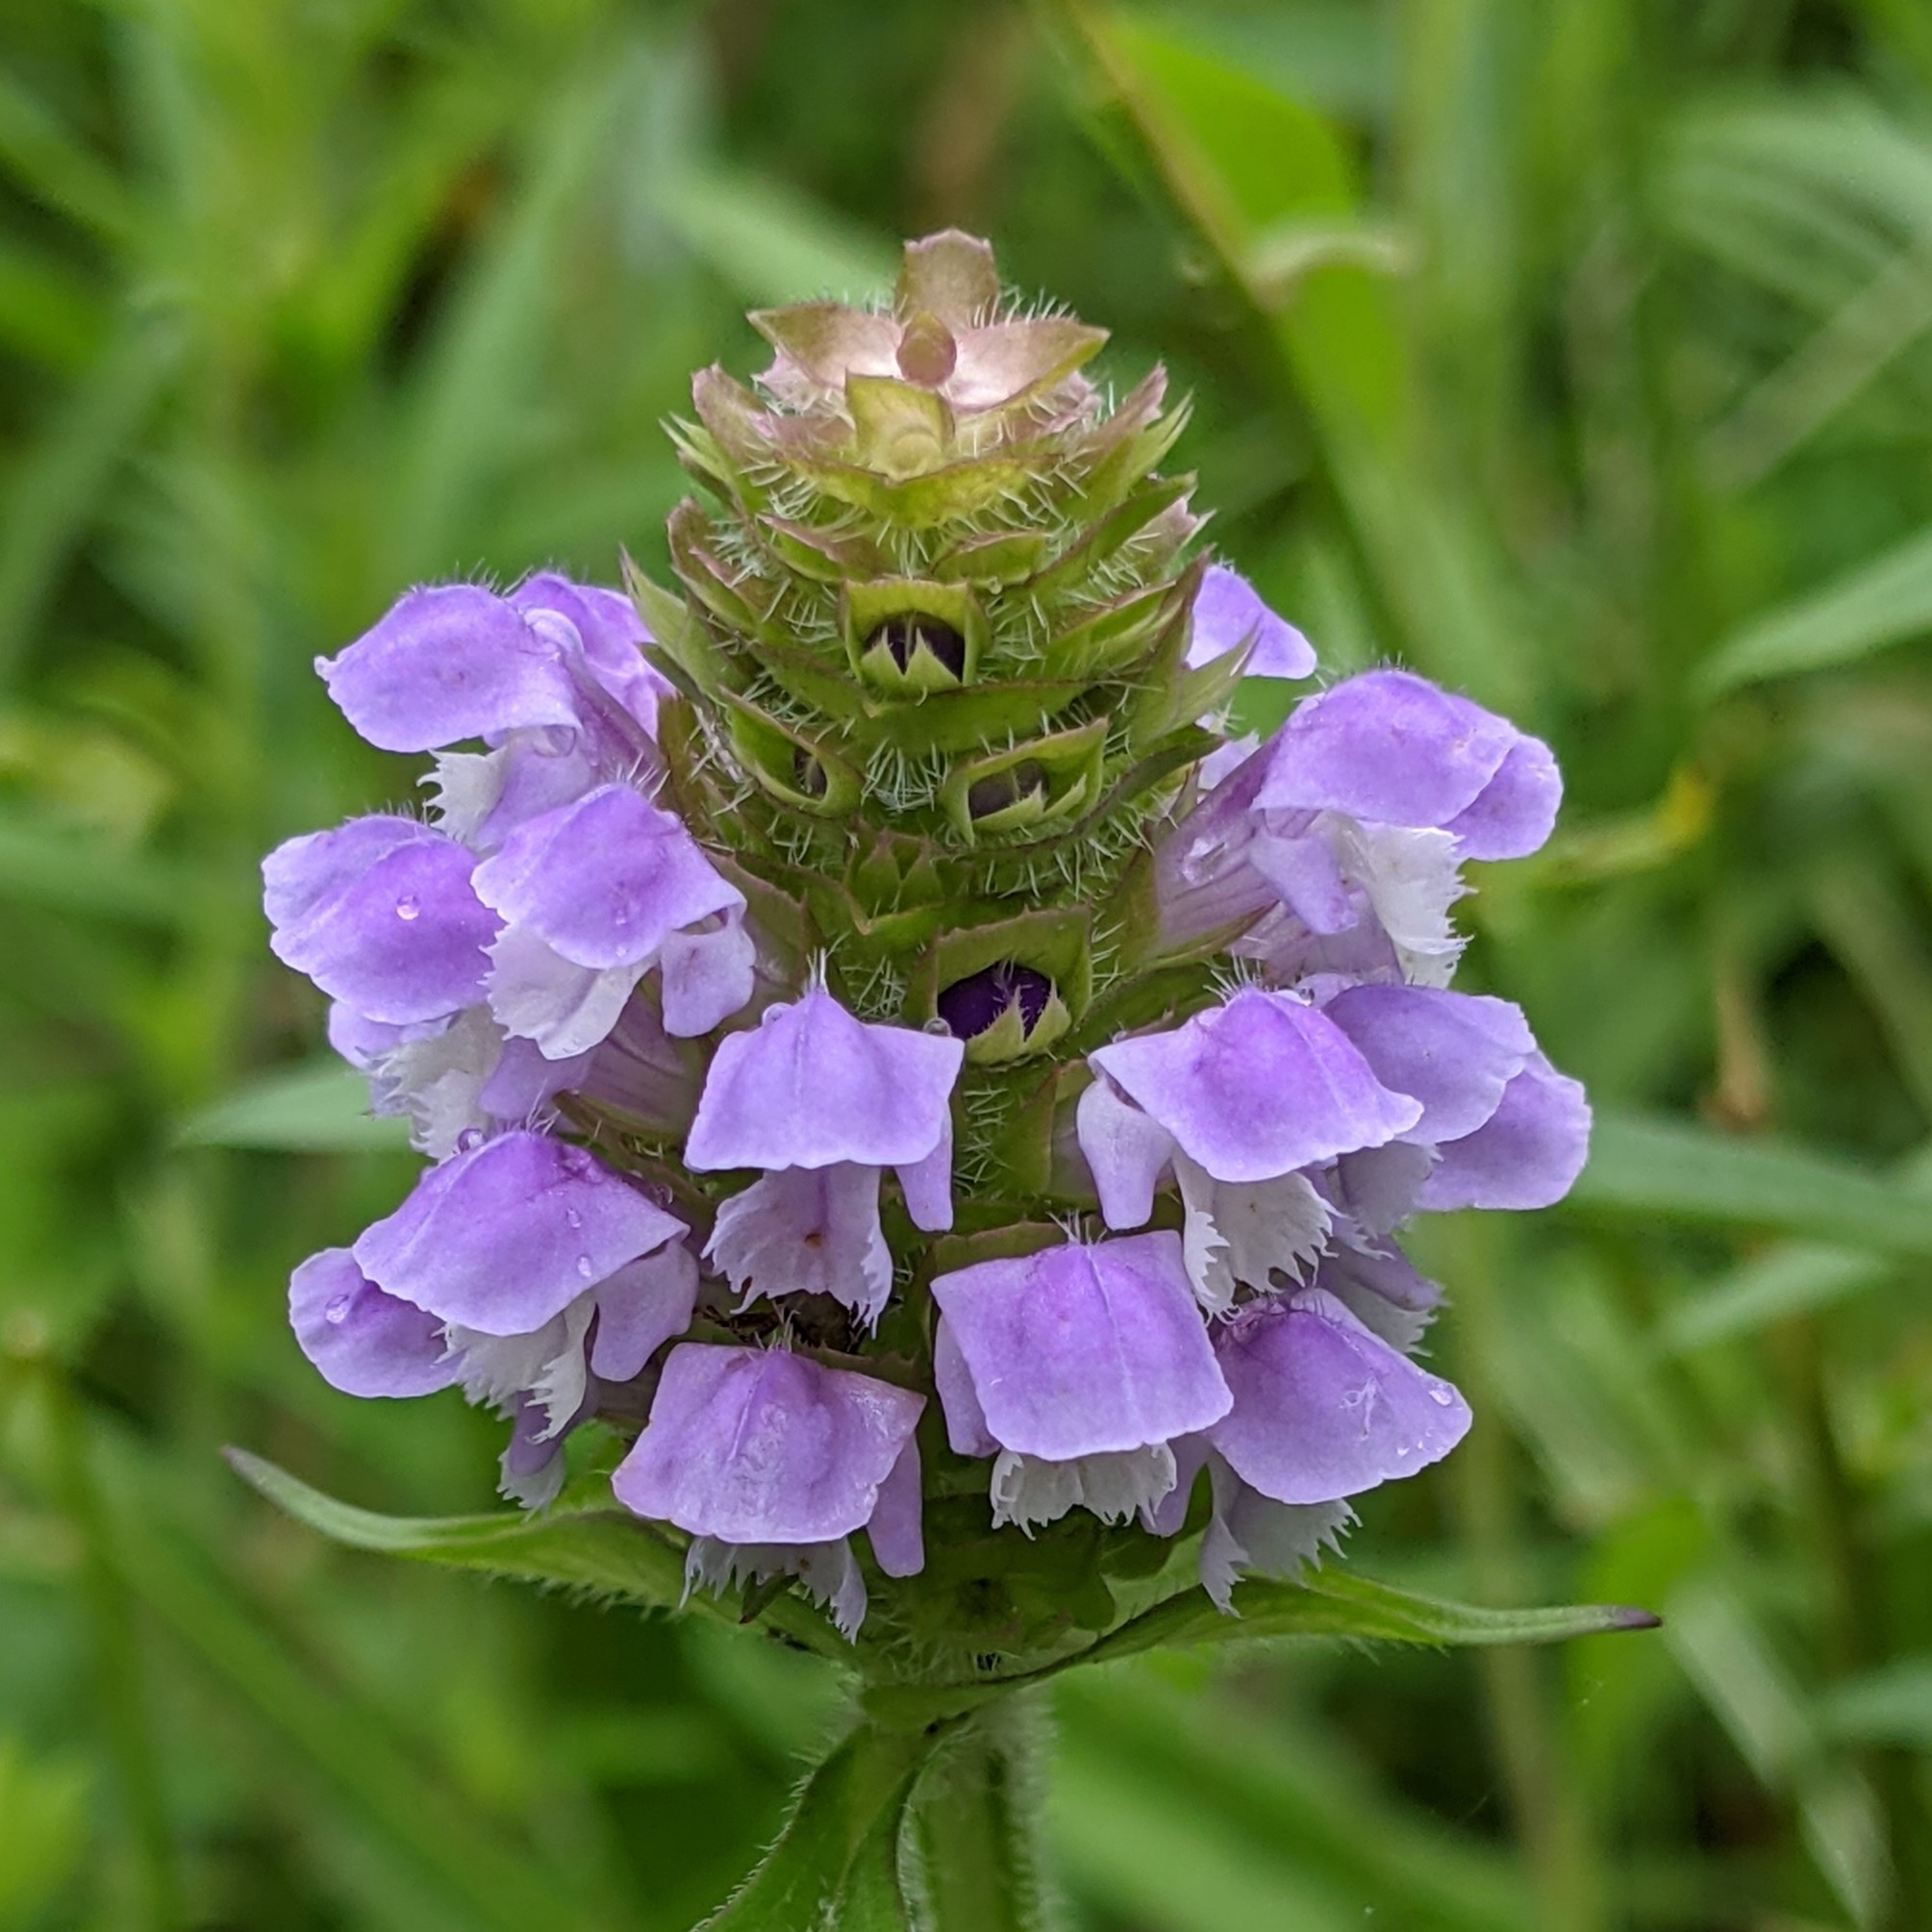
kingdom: Plantae
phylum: Tracheophyta
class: Magnoliopsida
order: Lamiales
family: Lamiaceae
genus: Prunella
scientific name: Prunella vulgaris
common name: Heal-all
